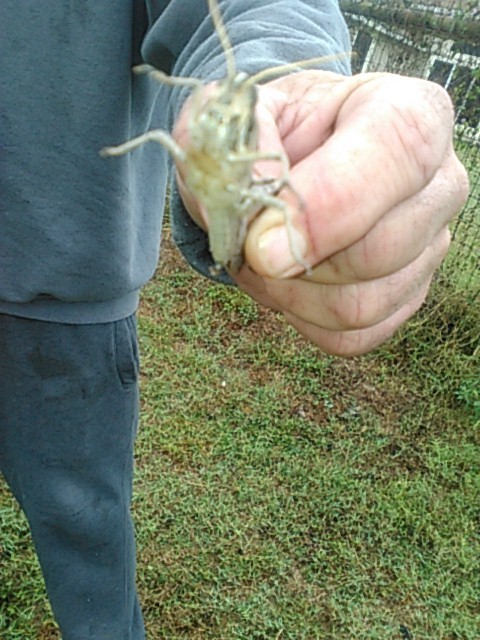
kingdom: Animalia
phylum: Arthropoda
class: Insecta
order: Orthoptera
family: Acrididae
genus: Schistocerca
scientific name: Schistocerca nitens
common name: Vagrant grasshopper
